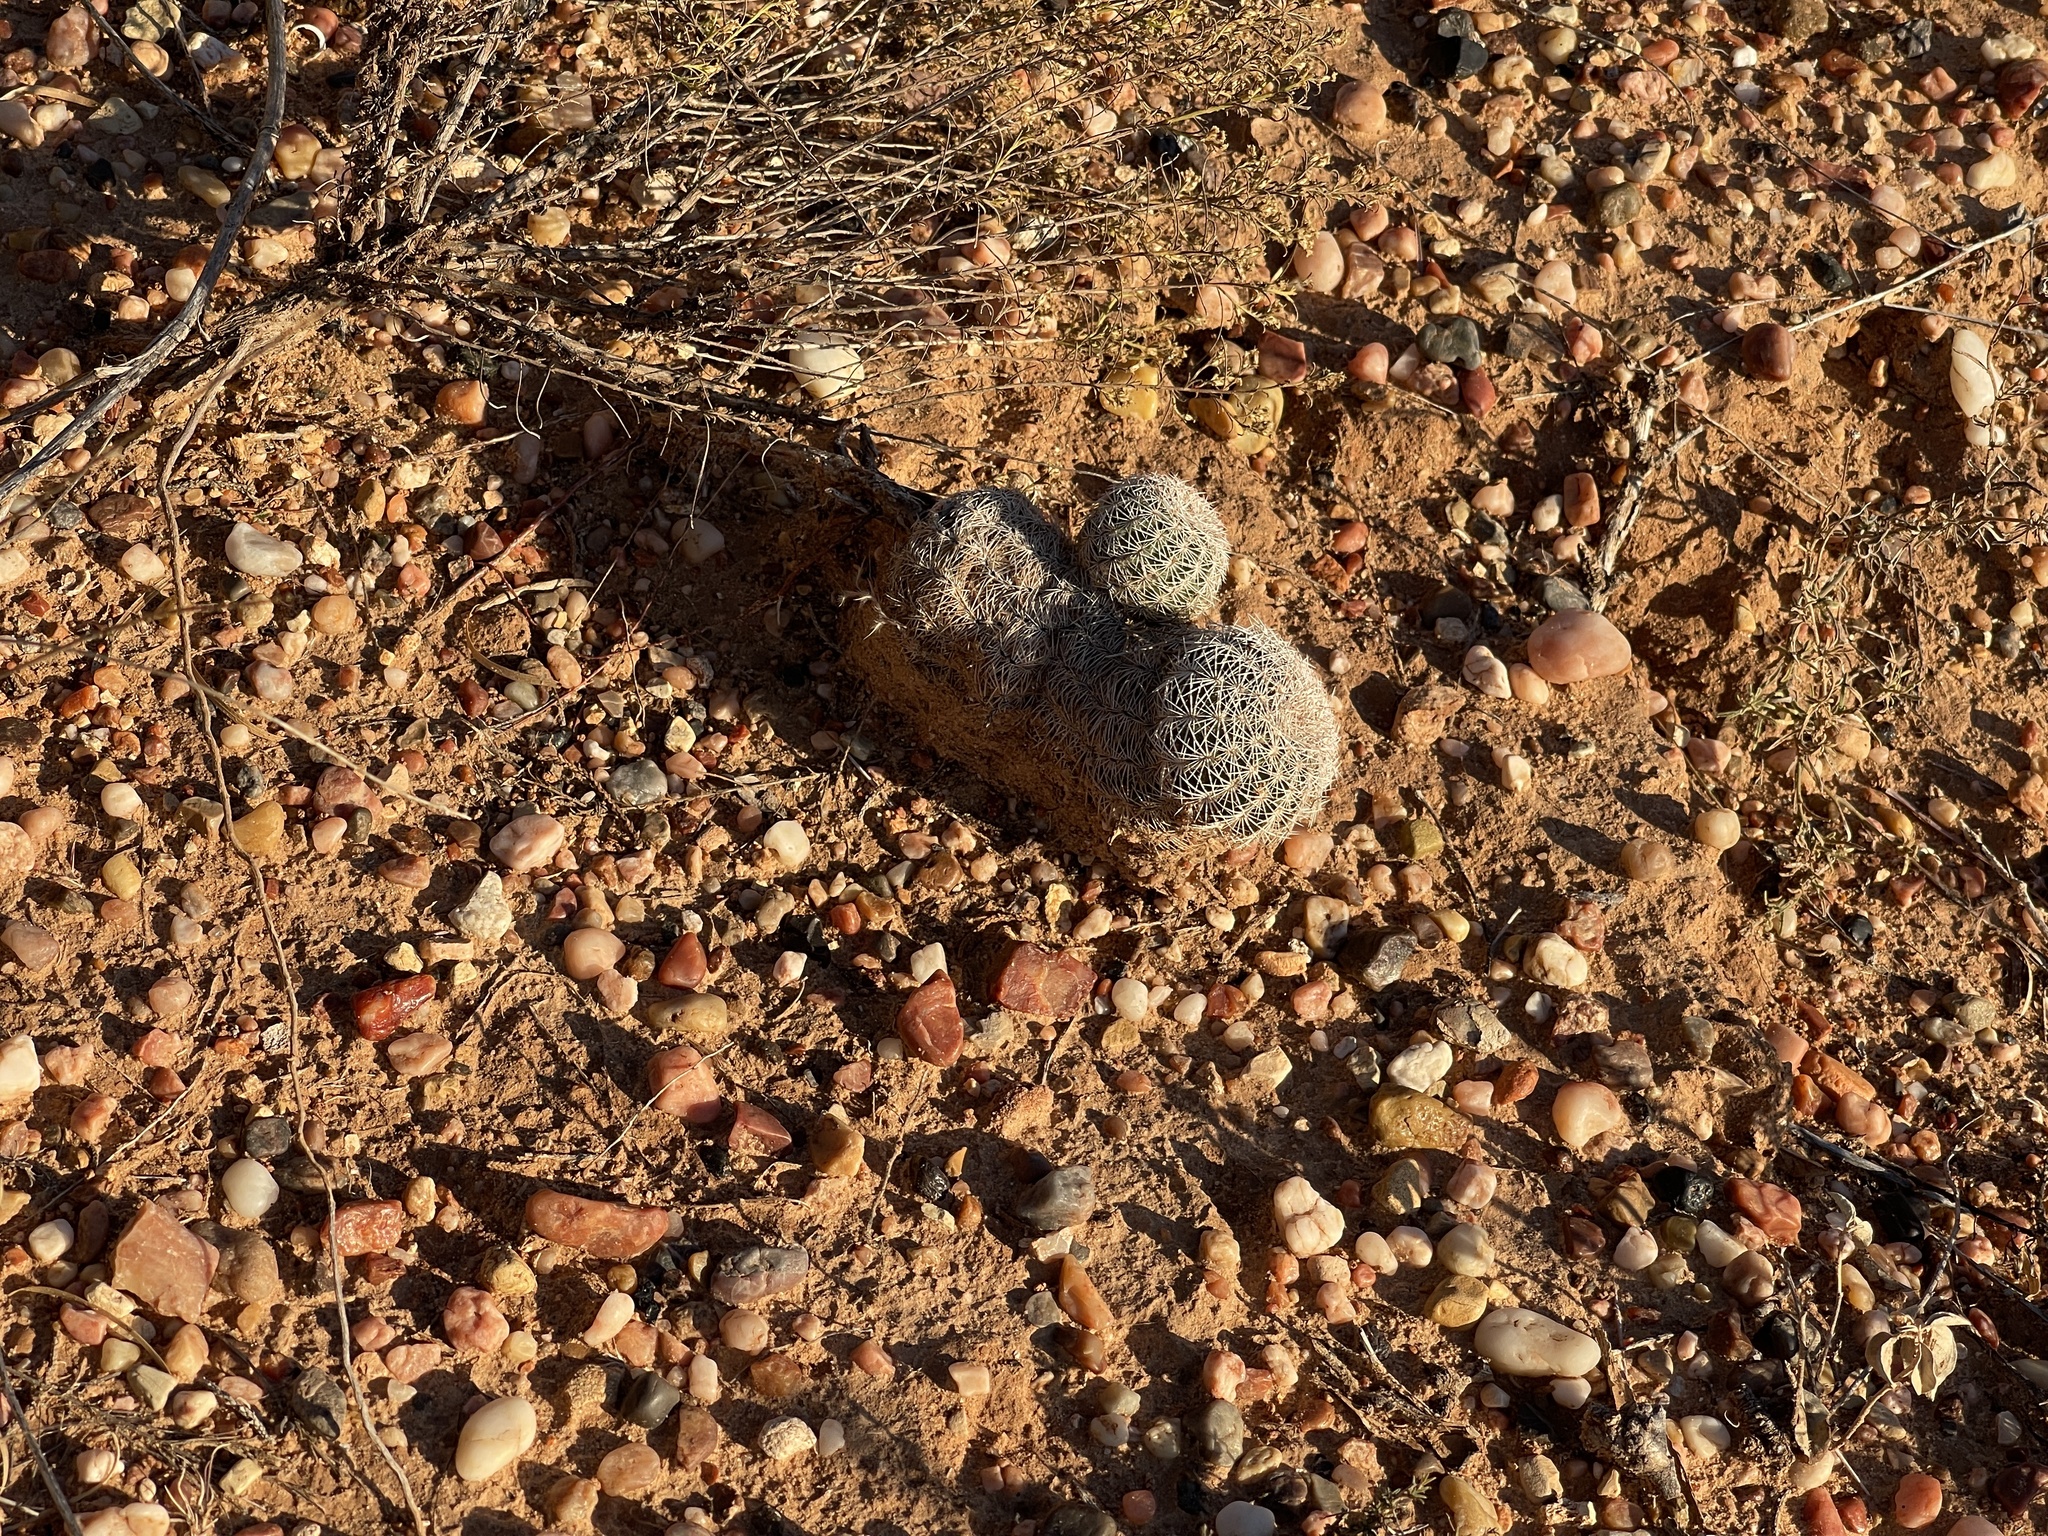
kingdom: Plantae
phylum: Tracheophyta
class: Magnoliopsida
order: Caryophyllales
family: Cactaceae
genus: Echinocereus
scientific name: Echinocereus reichenbachii
